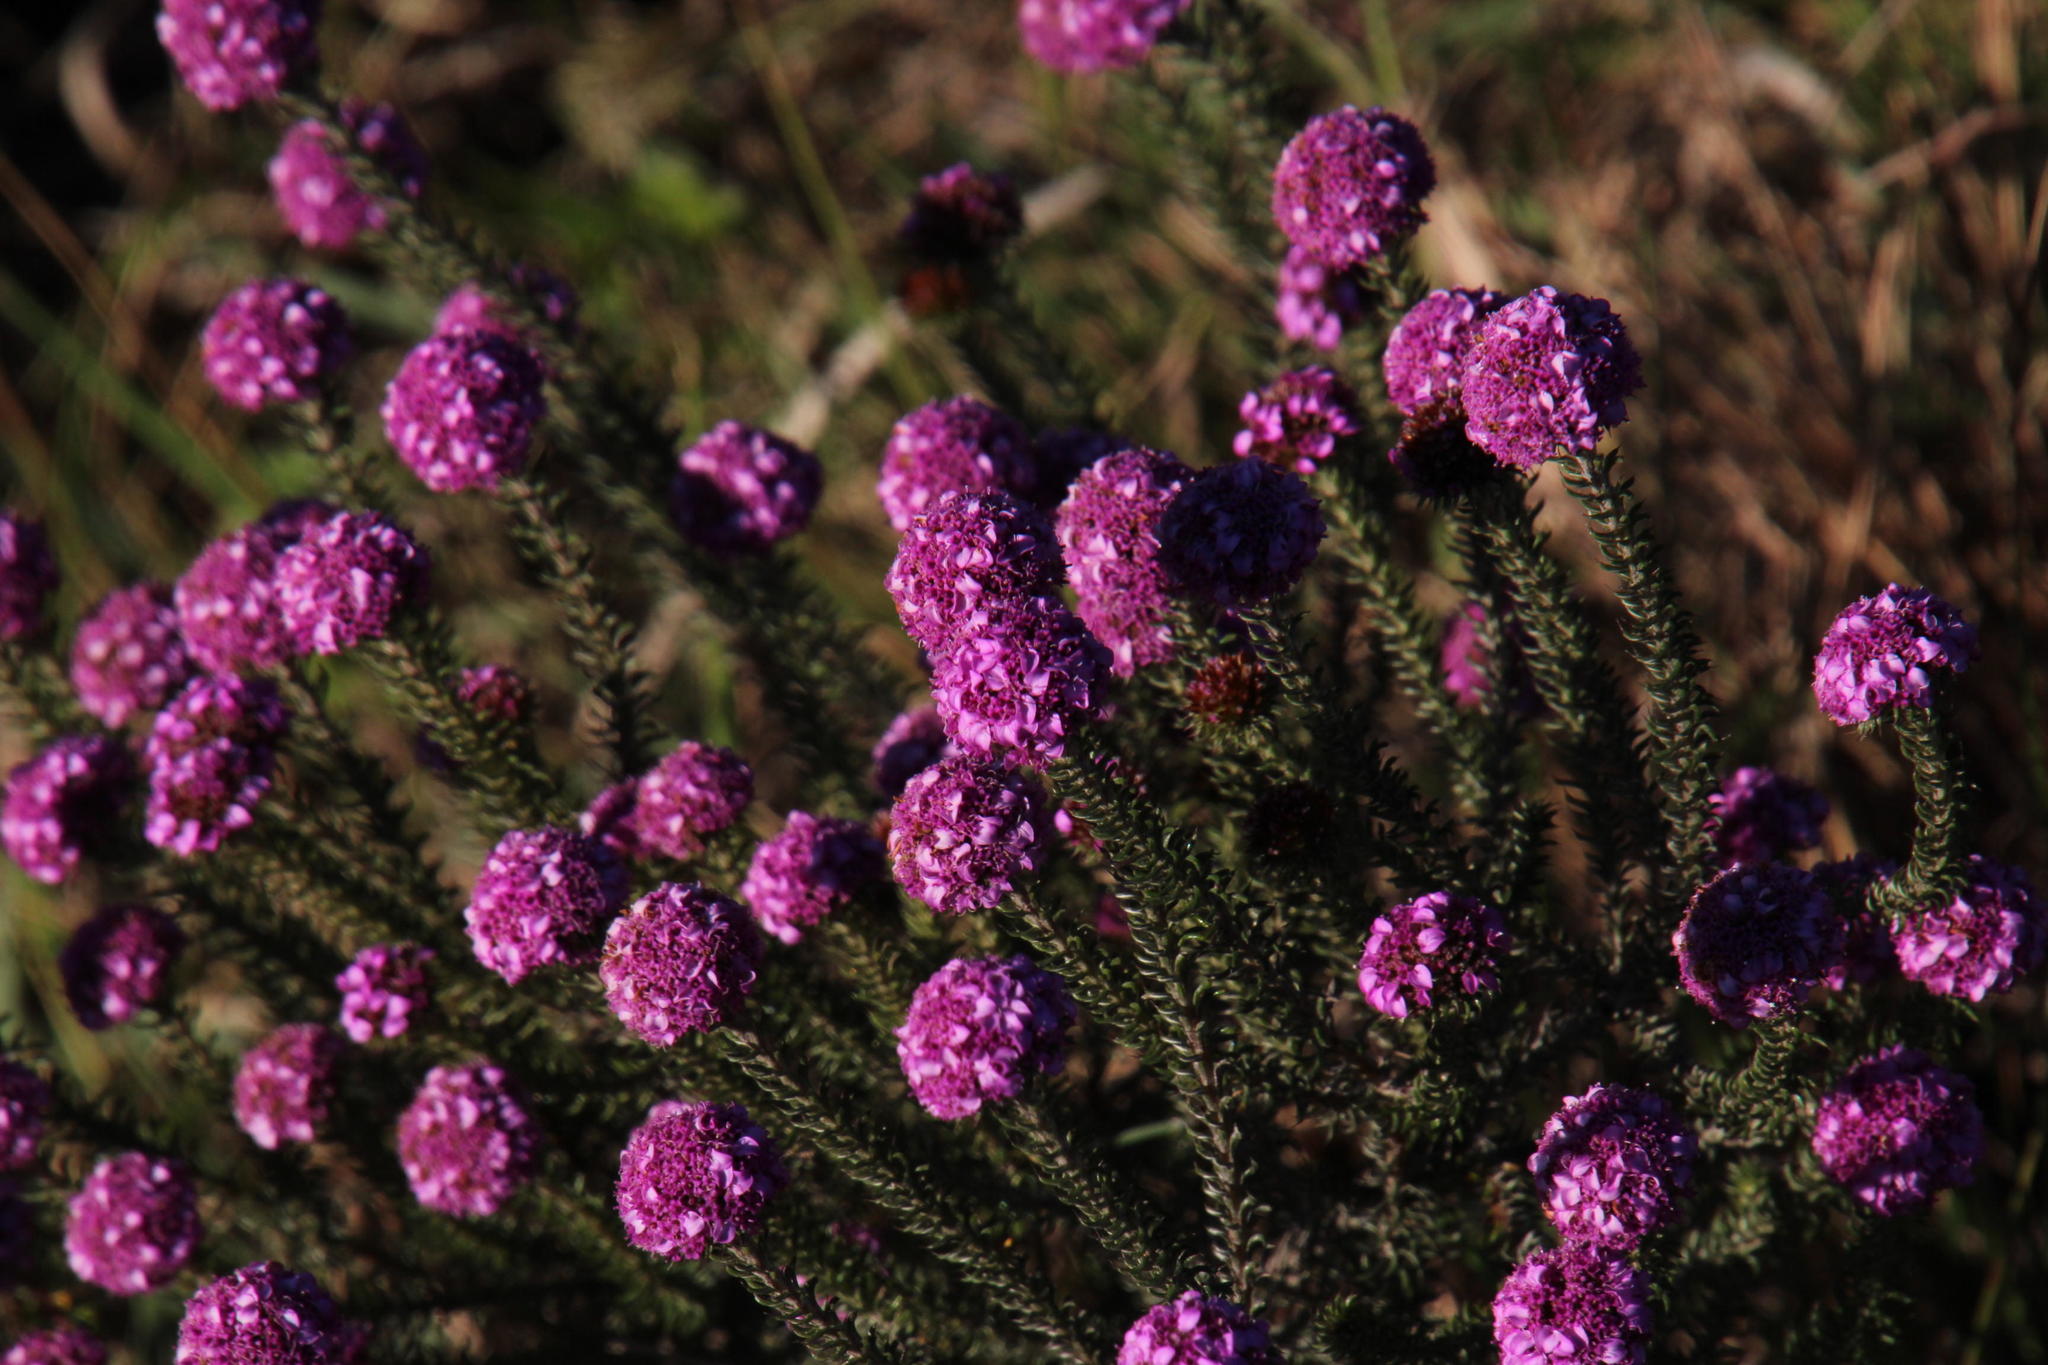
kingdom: Plantae
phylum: Tracheophyta
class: Magnoliopsida
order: Asterales
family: Asteraceae
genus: Disparago
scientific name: Disparago tortilis
